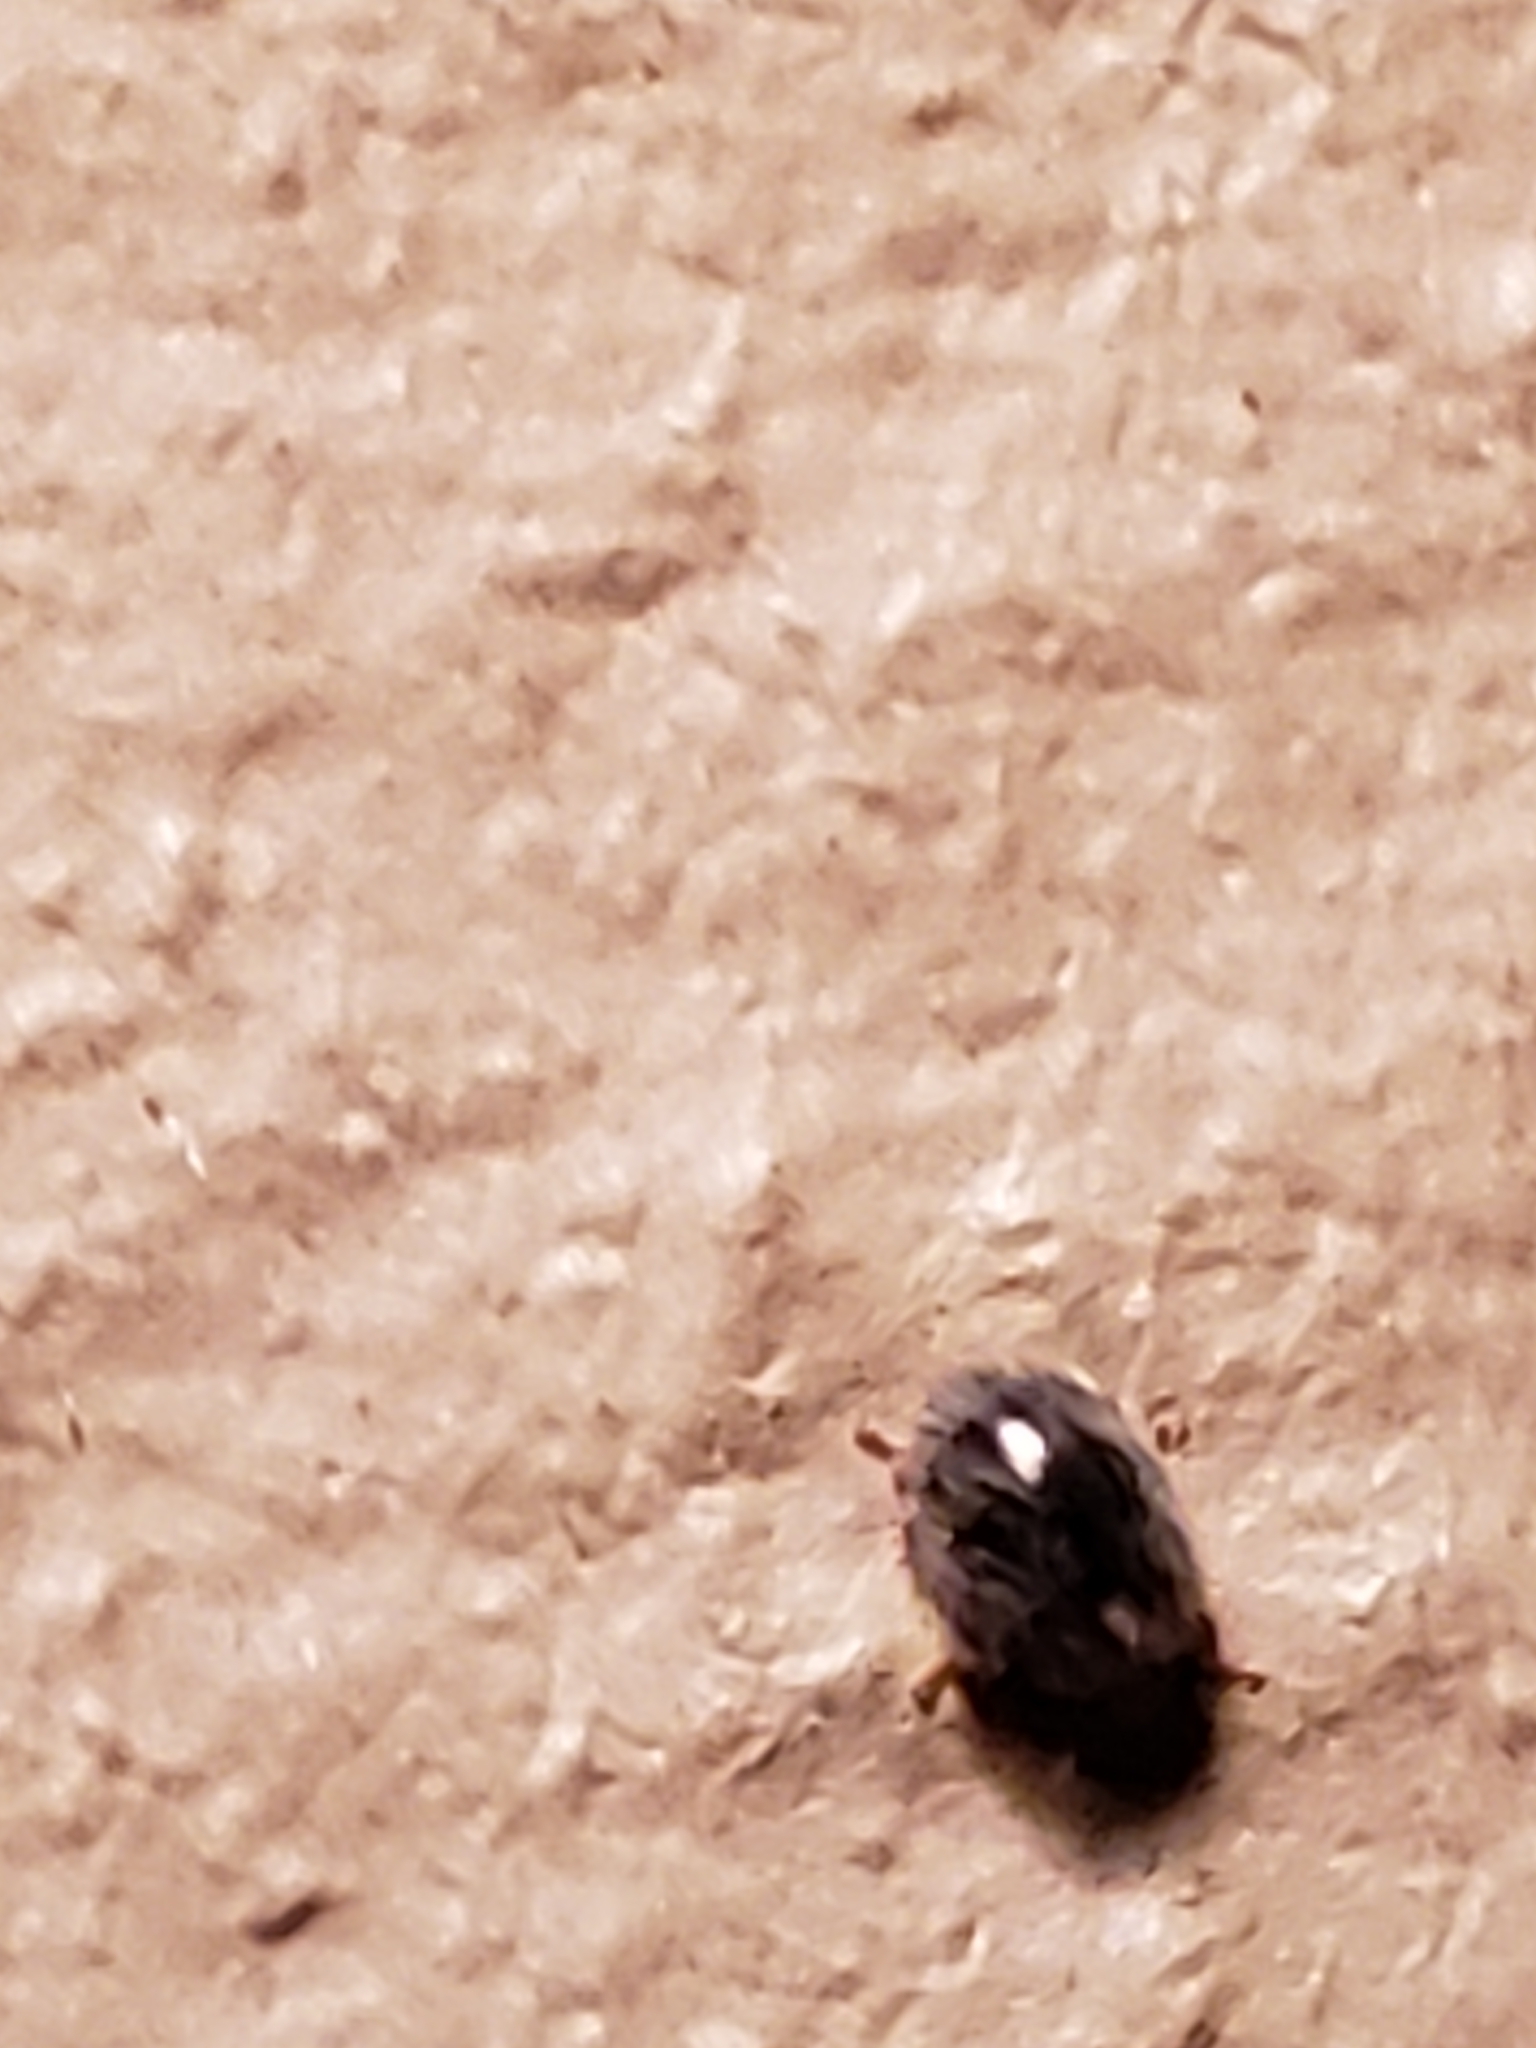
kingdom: Animalia
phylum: Arthropoda
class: Insecta
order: Coleoptera
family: Coccinellidae
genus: Rhyzobius
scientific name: Rhyzobius lophanthae
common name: Scale-eating ladybird beetle
